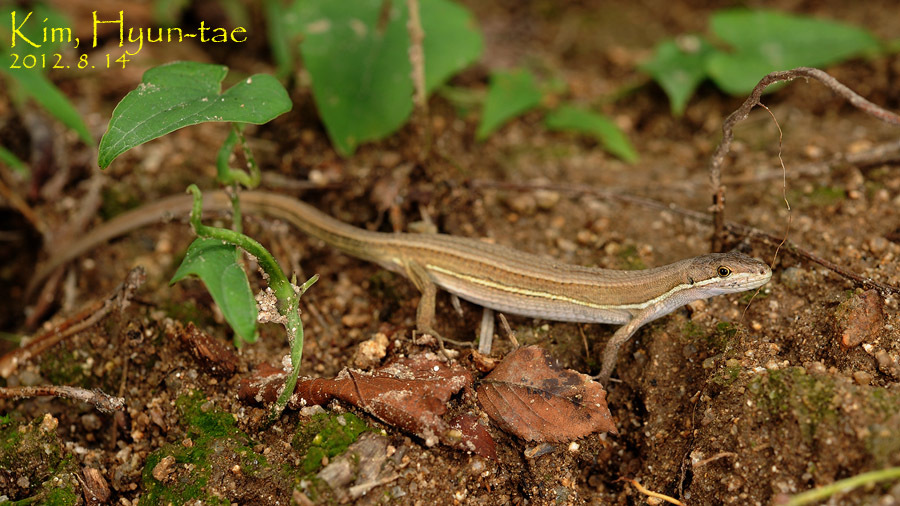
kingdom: Animalia
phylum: Chordata
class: Squamata
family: Lacertidae
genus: Takydromus
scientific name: Takydromus wolteri
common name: Mountain grass lizard
